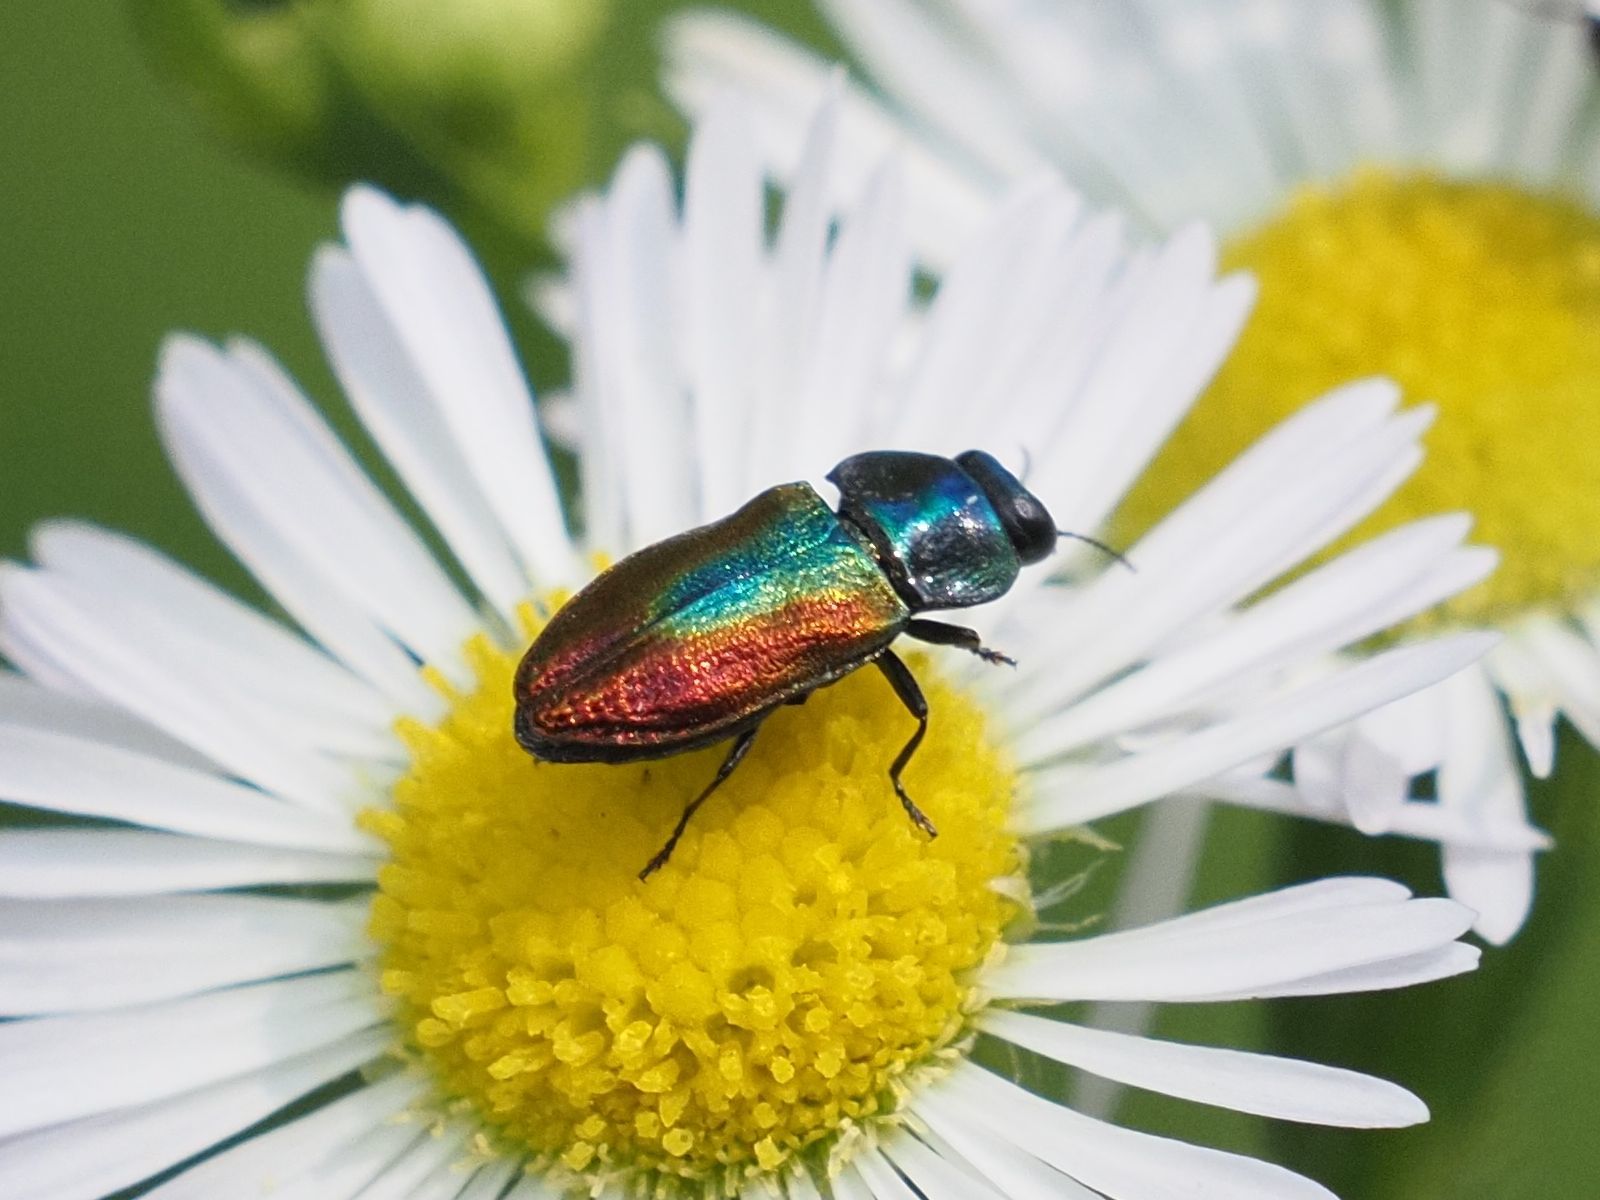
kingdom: Animalia
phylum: Arthropoda
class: Insecta
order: Coleoptera
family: Buprestidae
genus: Anthaxia
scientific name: Anthaxia fulgurans
